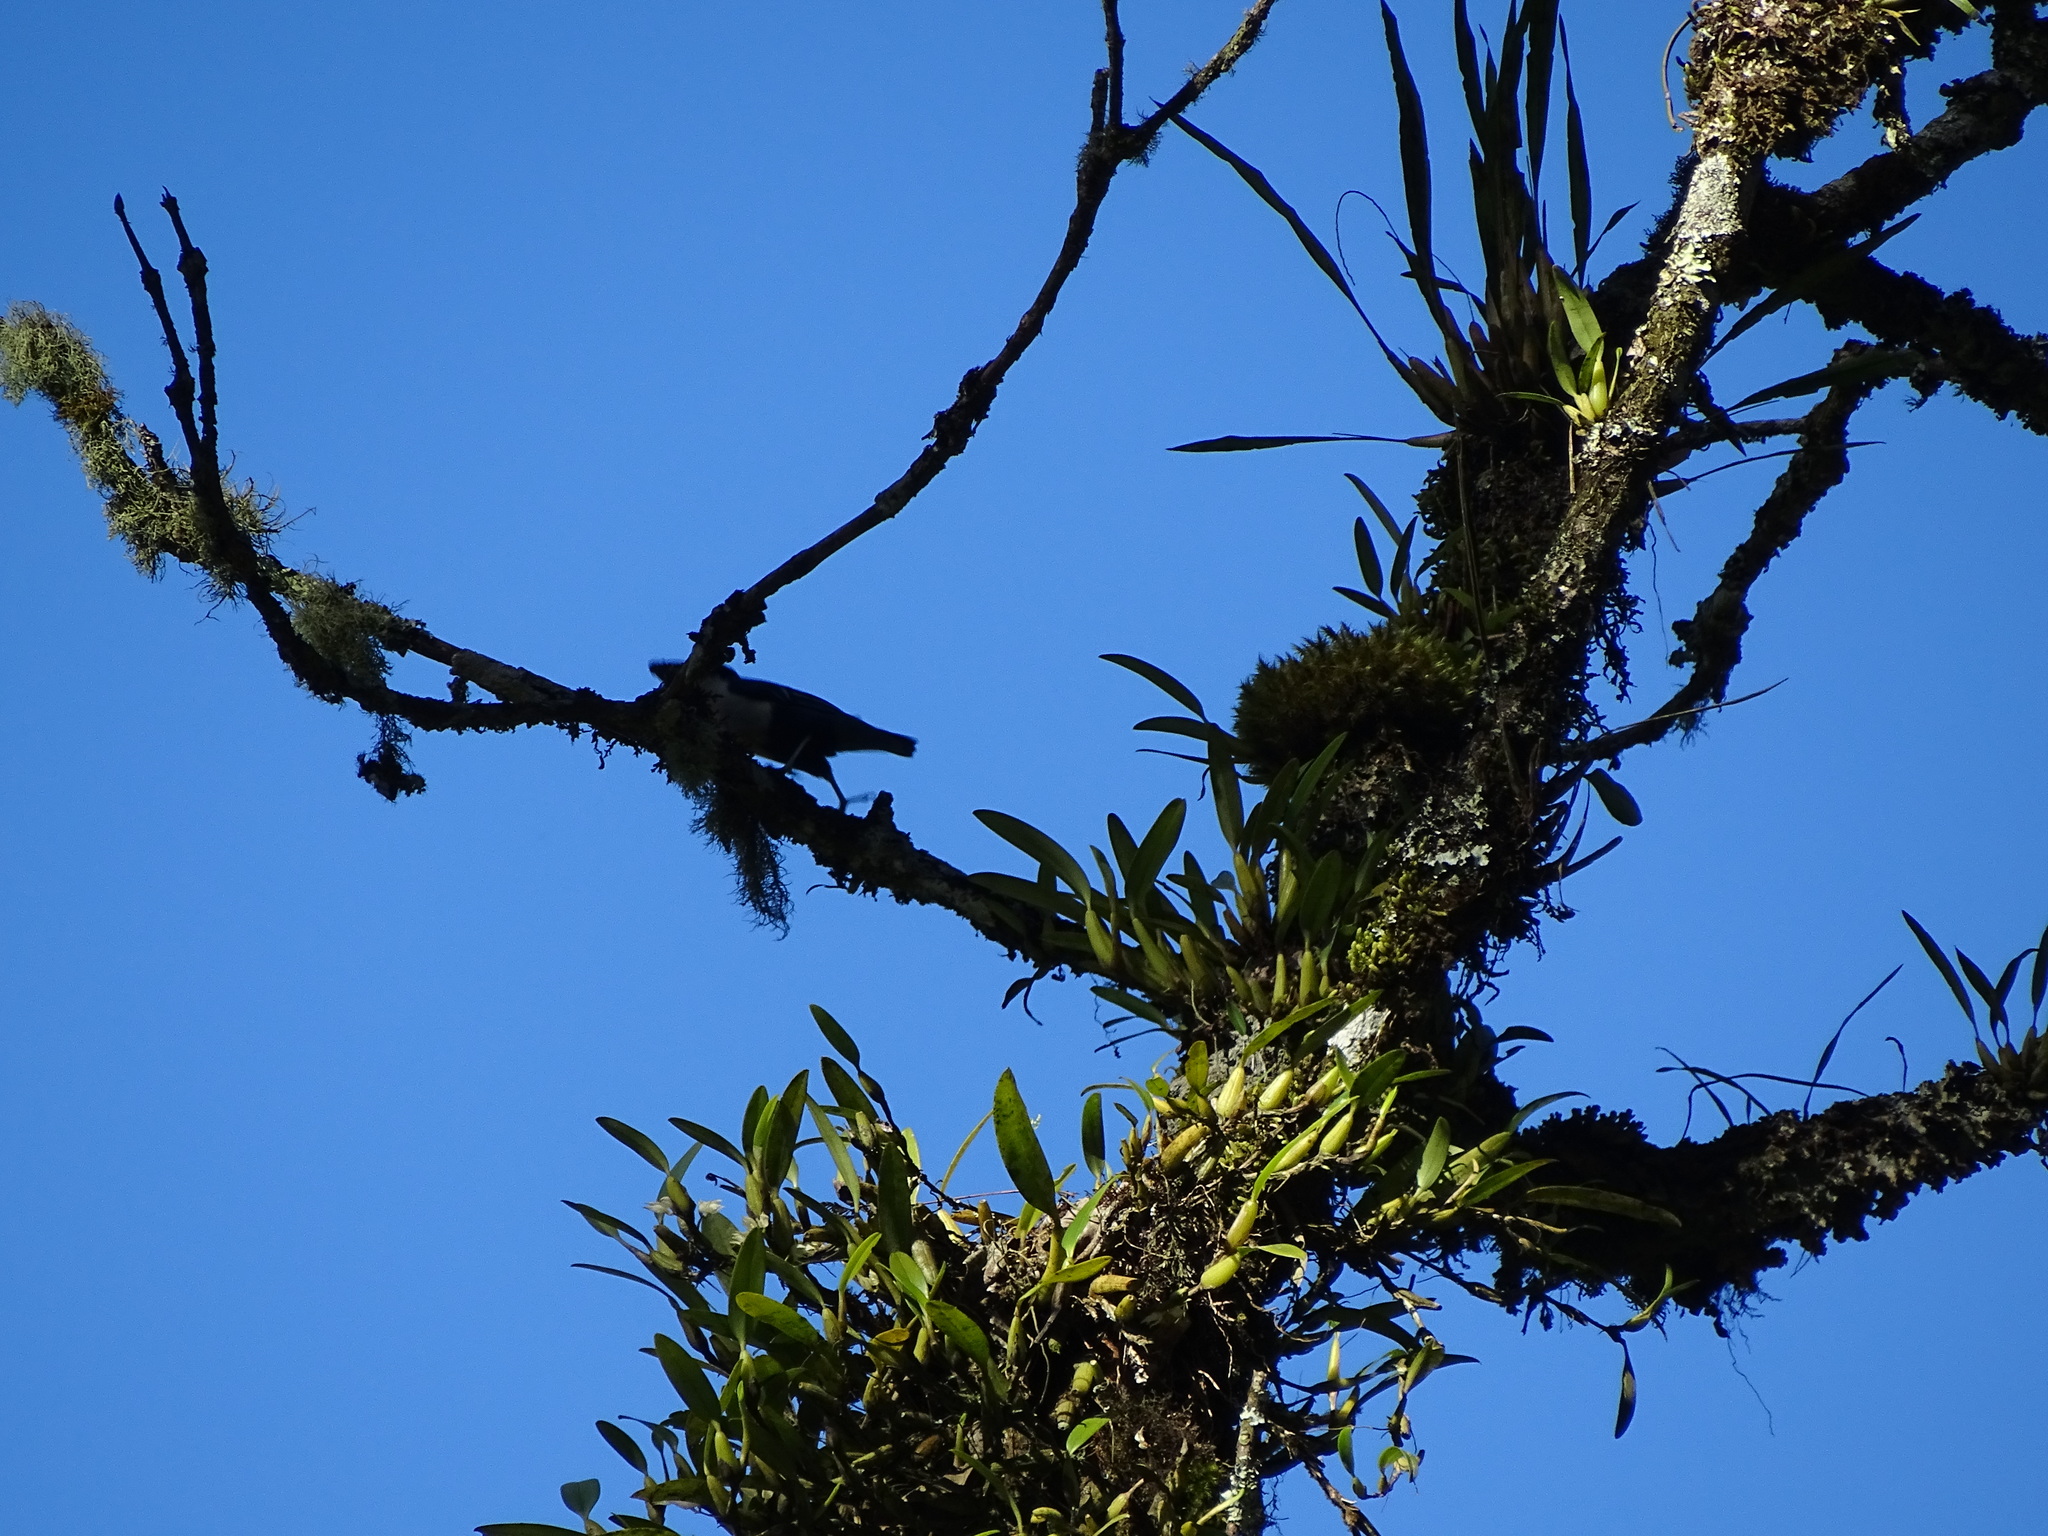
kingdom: Animalia
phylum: Chordata
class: Aves
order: Passeriformes
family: Sittidae
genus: Sitta
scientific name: Sitta azurea
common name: Blue nuthatch
